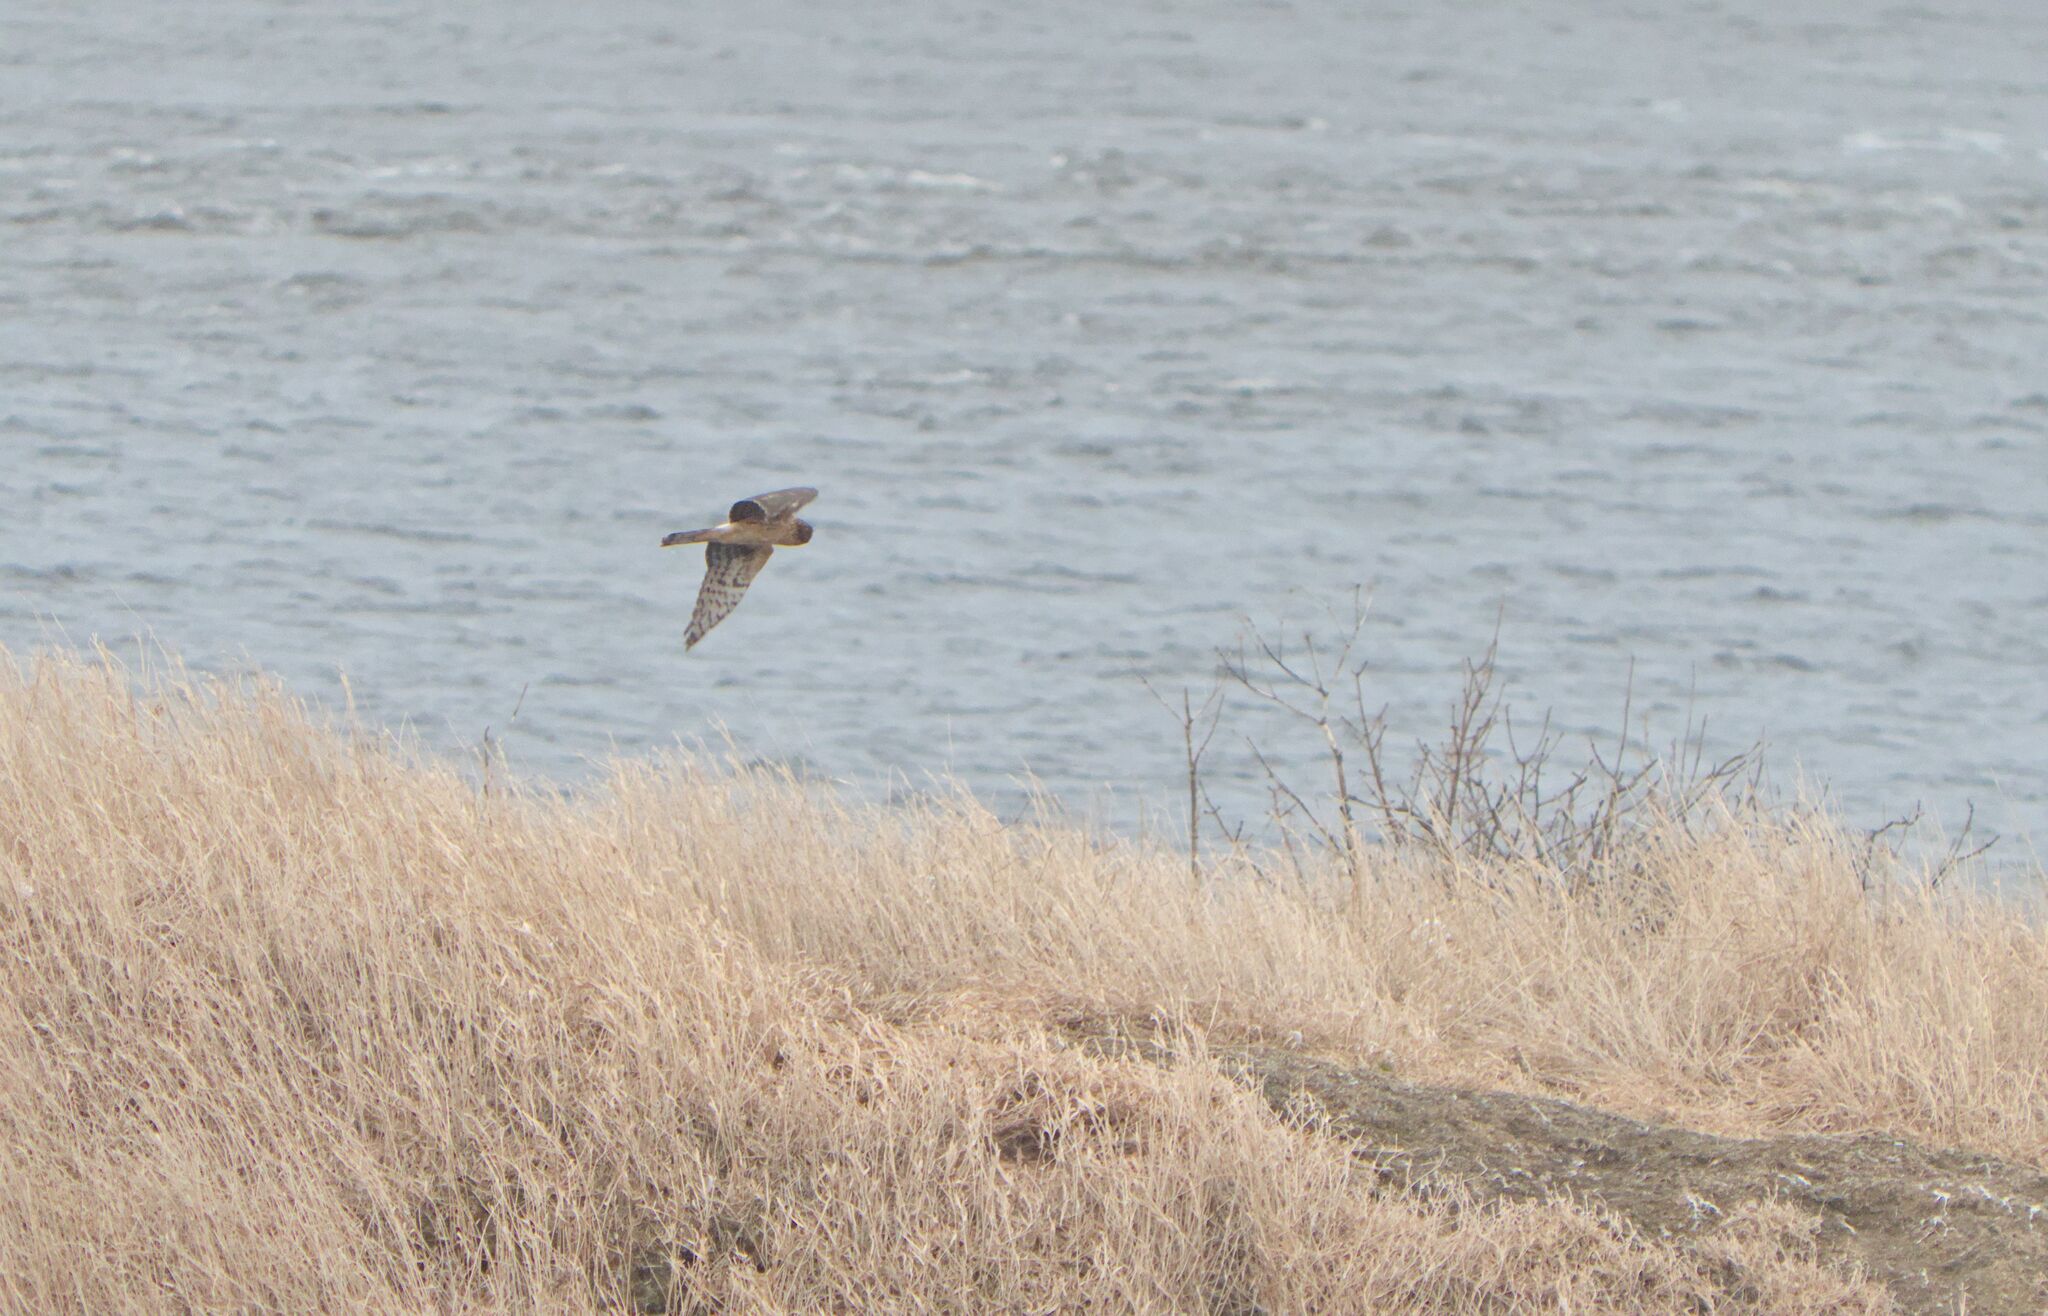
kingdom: Animalia
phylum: Chordata
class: Aves
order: Accipitriformes
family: Accipitridae
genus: Circus
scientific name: Circus cyaneus
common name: Hen harrier
